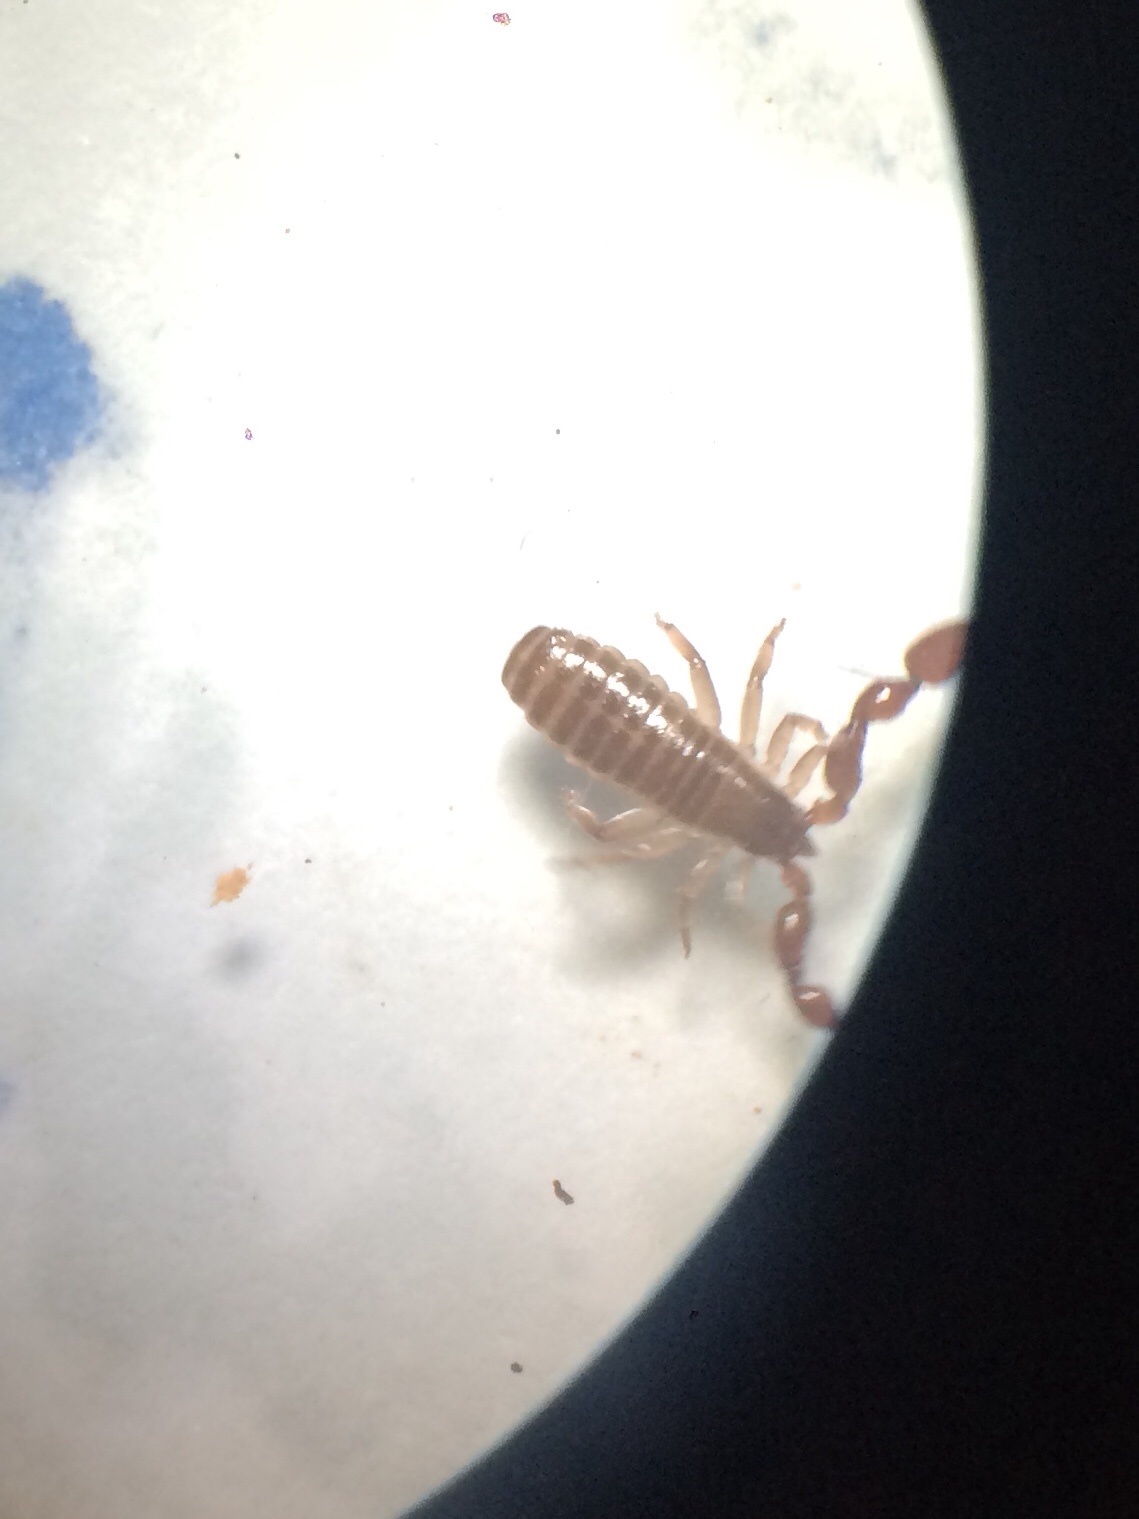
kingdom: Animalia
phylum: Arthropoda
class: Arachnida
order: Pseudoscorpiones
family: Atemnidae
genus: Paratemnoides
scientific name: Paratemnoides nidificator
